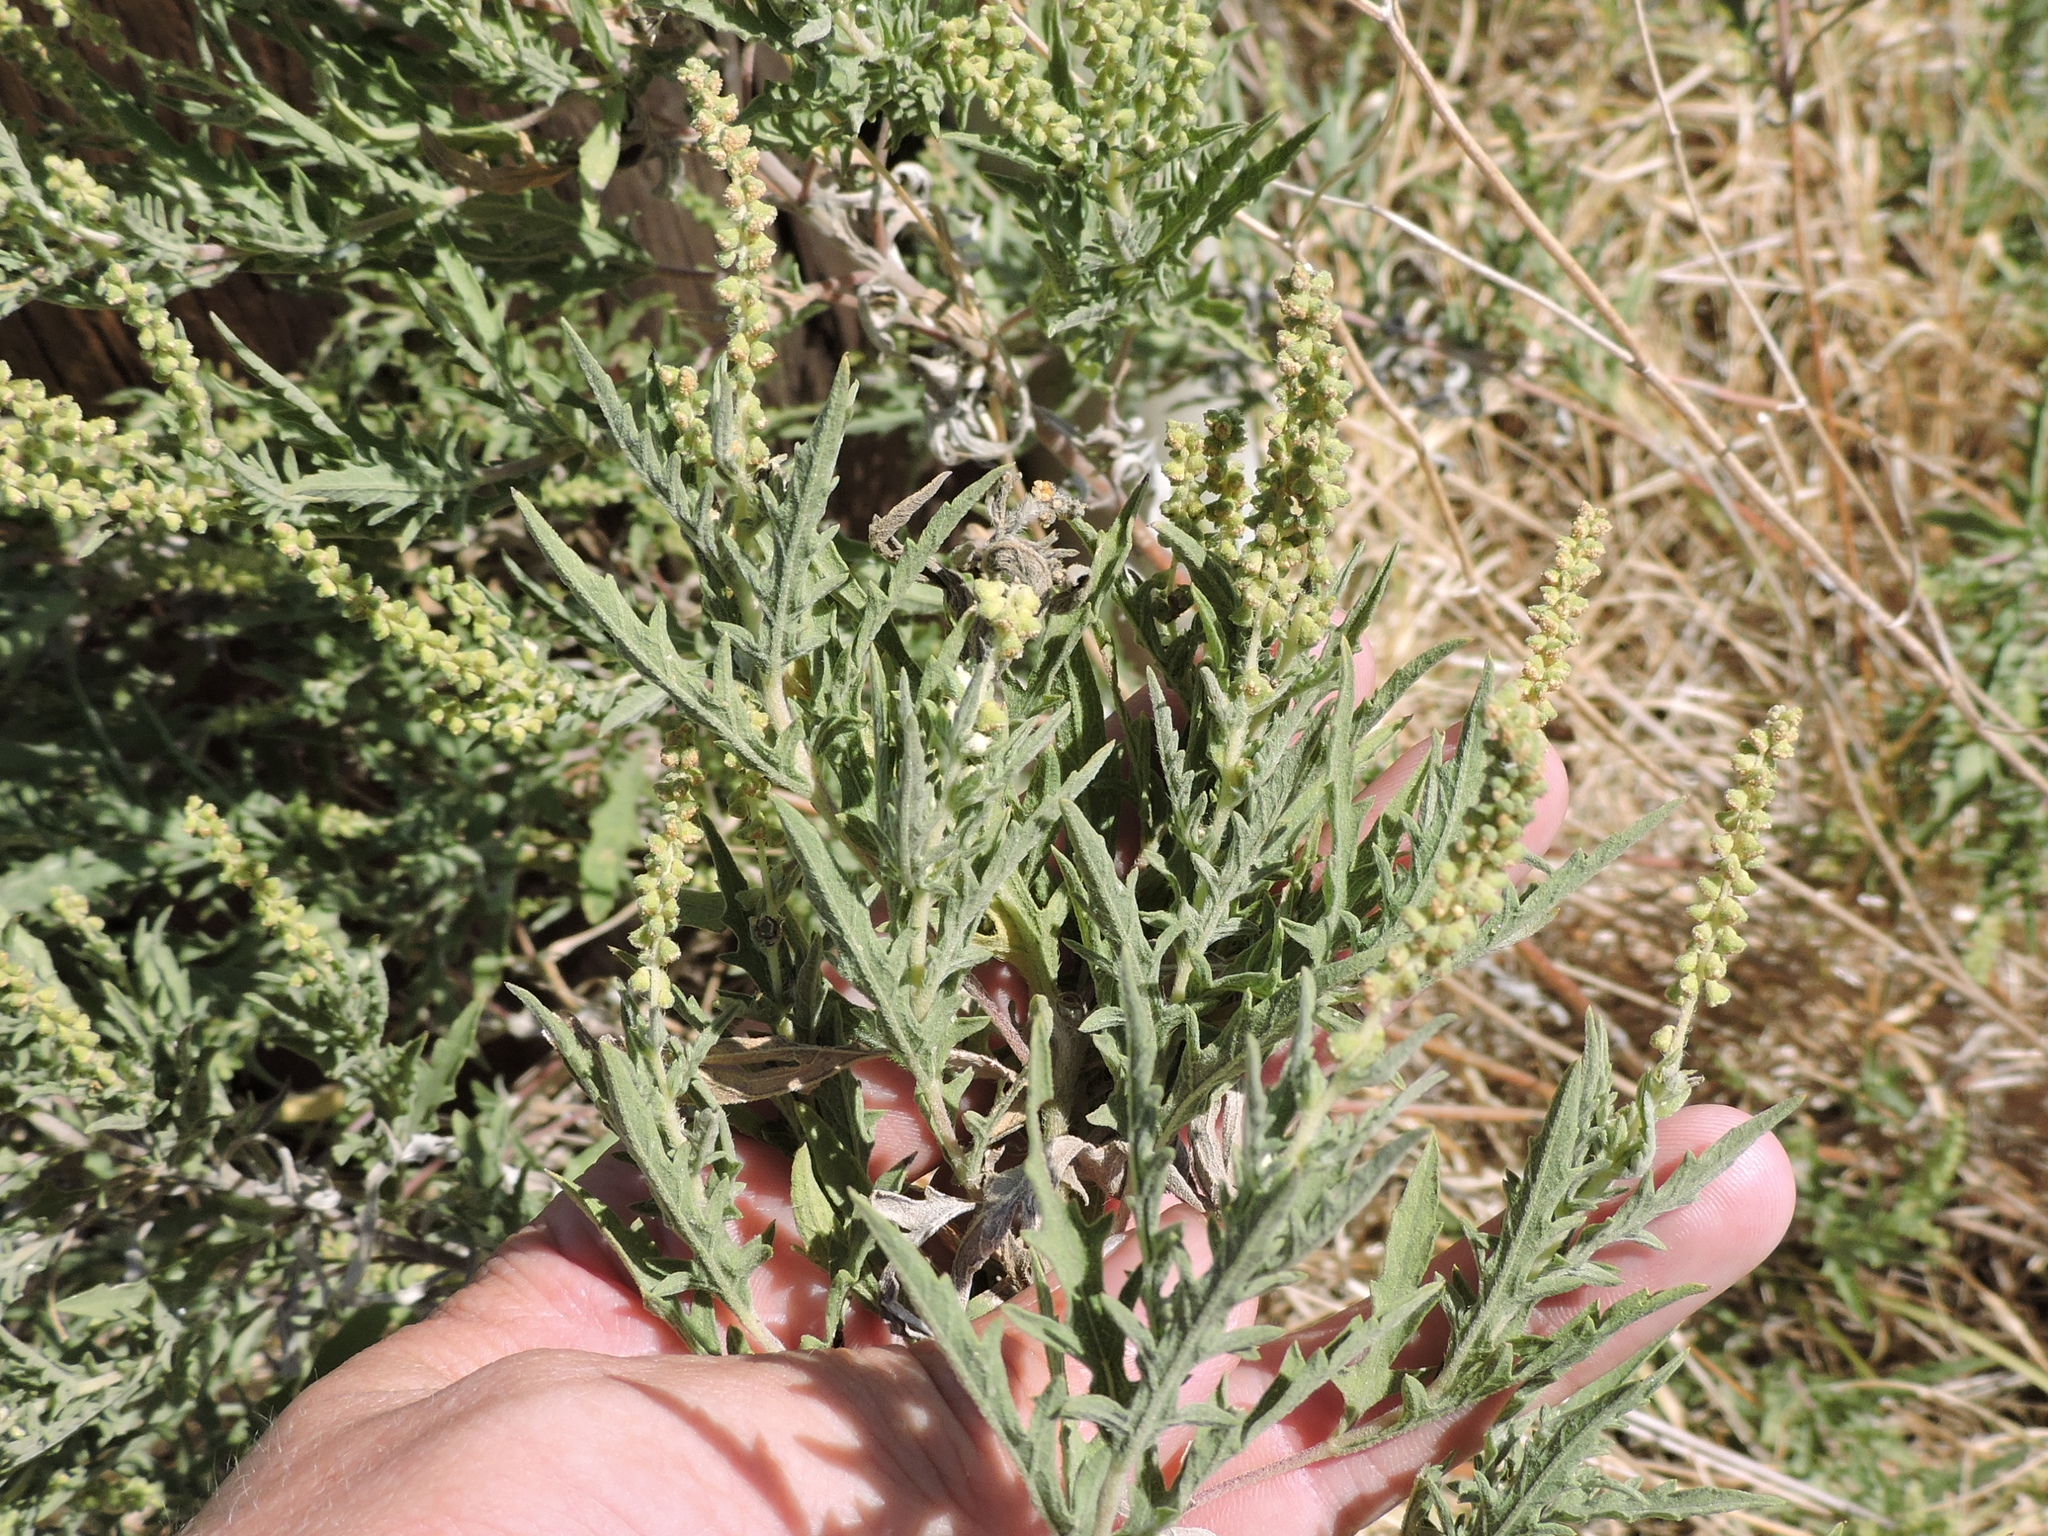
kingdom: Plantae
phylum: Tracheophyta
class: Magnoliopsida
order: Asterales
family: Asteraceae
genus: Ambrosia
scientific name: Ambrosia psilostachya
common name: Perennial ragweed
